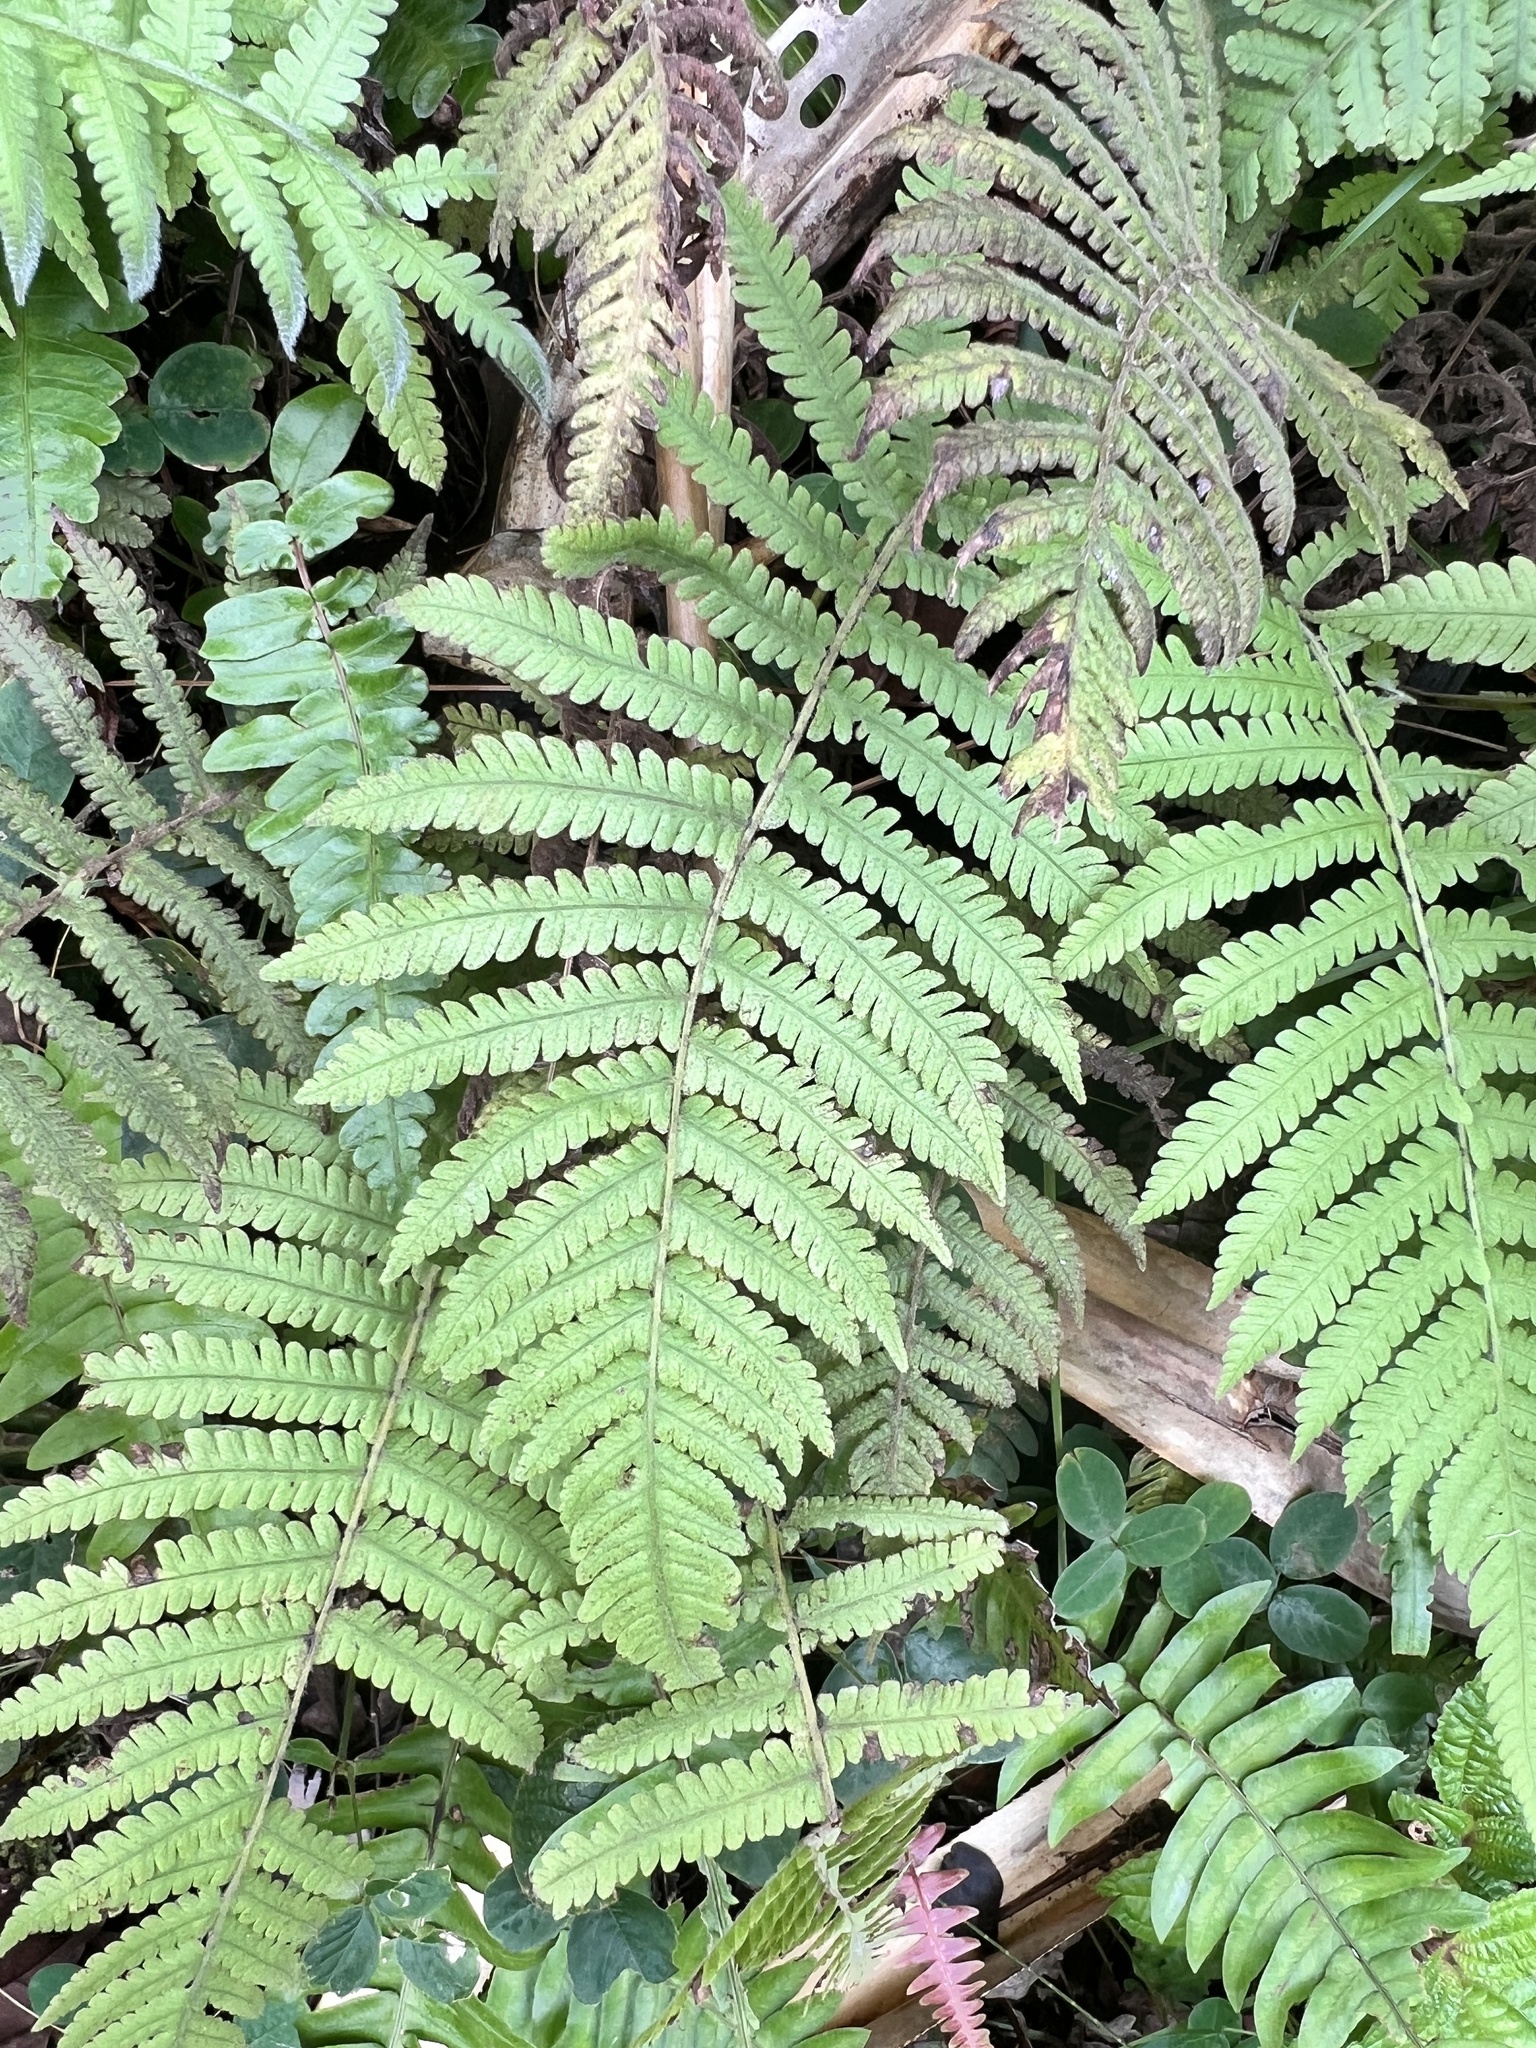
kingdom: Plantae
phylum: Tracheophyta
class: Polypodiopsida
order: Polypodiales
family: Thelypteridaceae
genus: Christella
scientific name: Christella parasitica
